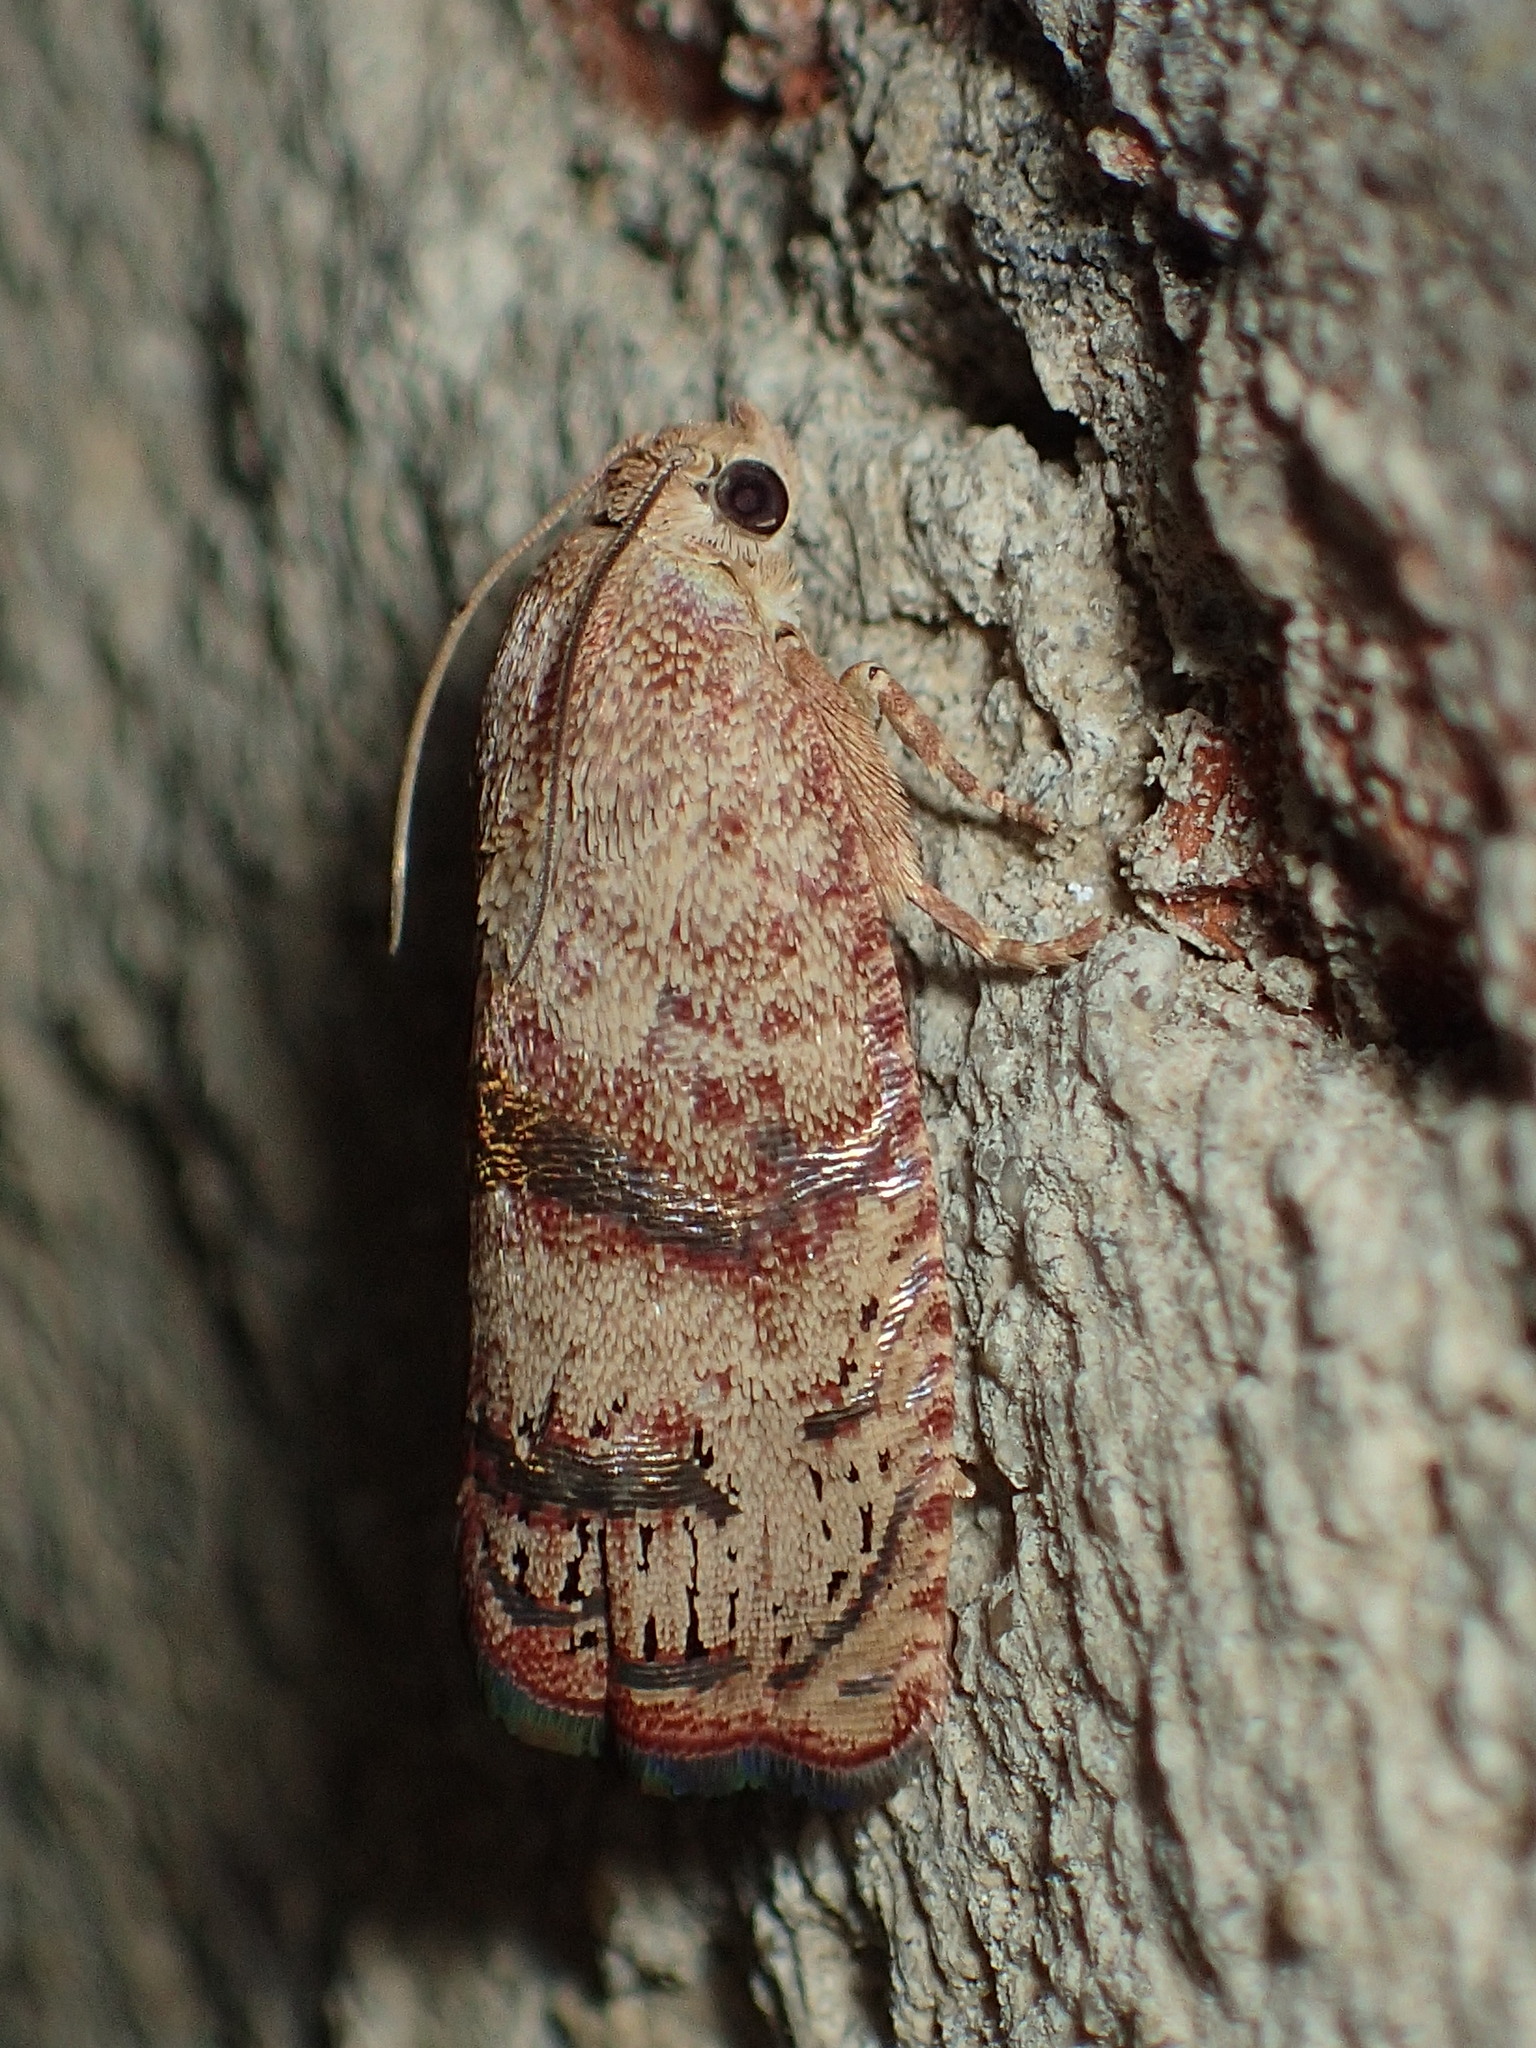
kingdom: Animalia
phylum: Arthropoda
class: Insecta
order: Lepidoptera
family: Tortricidae
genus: Cydia
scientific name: Cydia latiferreana
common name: Filbertworm moth
